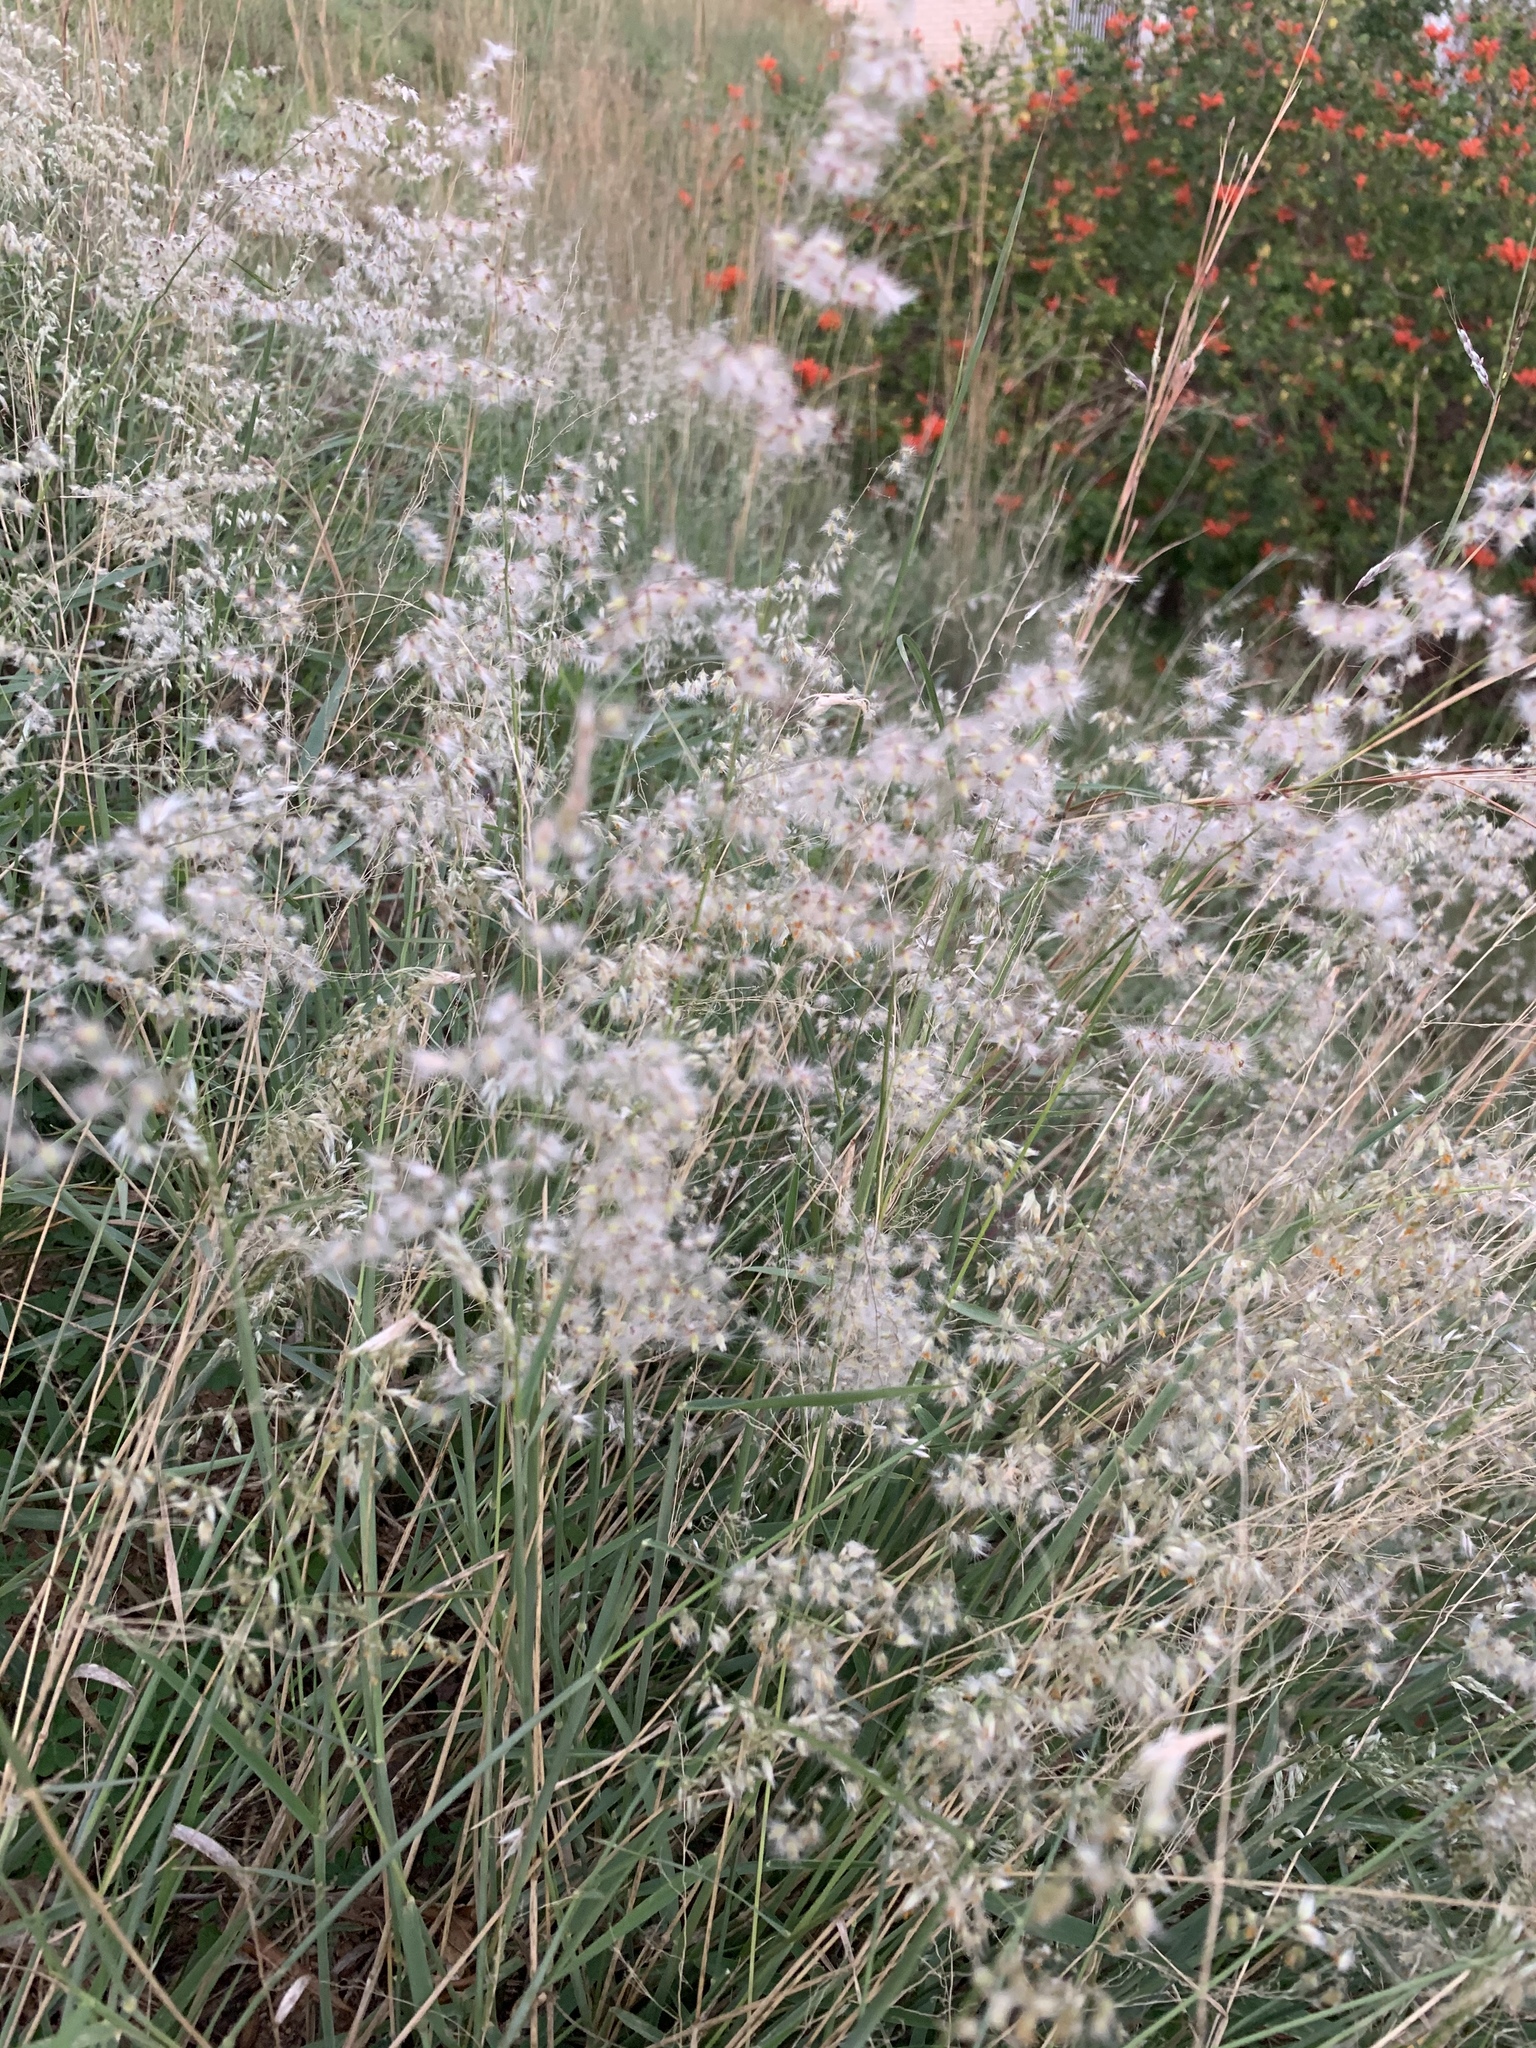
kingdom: Plantae
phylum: Tracheophyta
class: Liliopsida
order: Poales
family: Poaceae
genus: Melinis
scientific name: Melinis repens
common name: Rose natal grass
